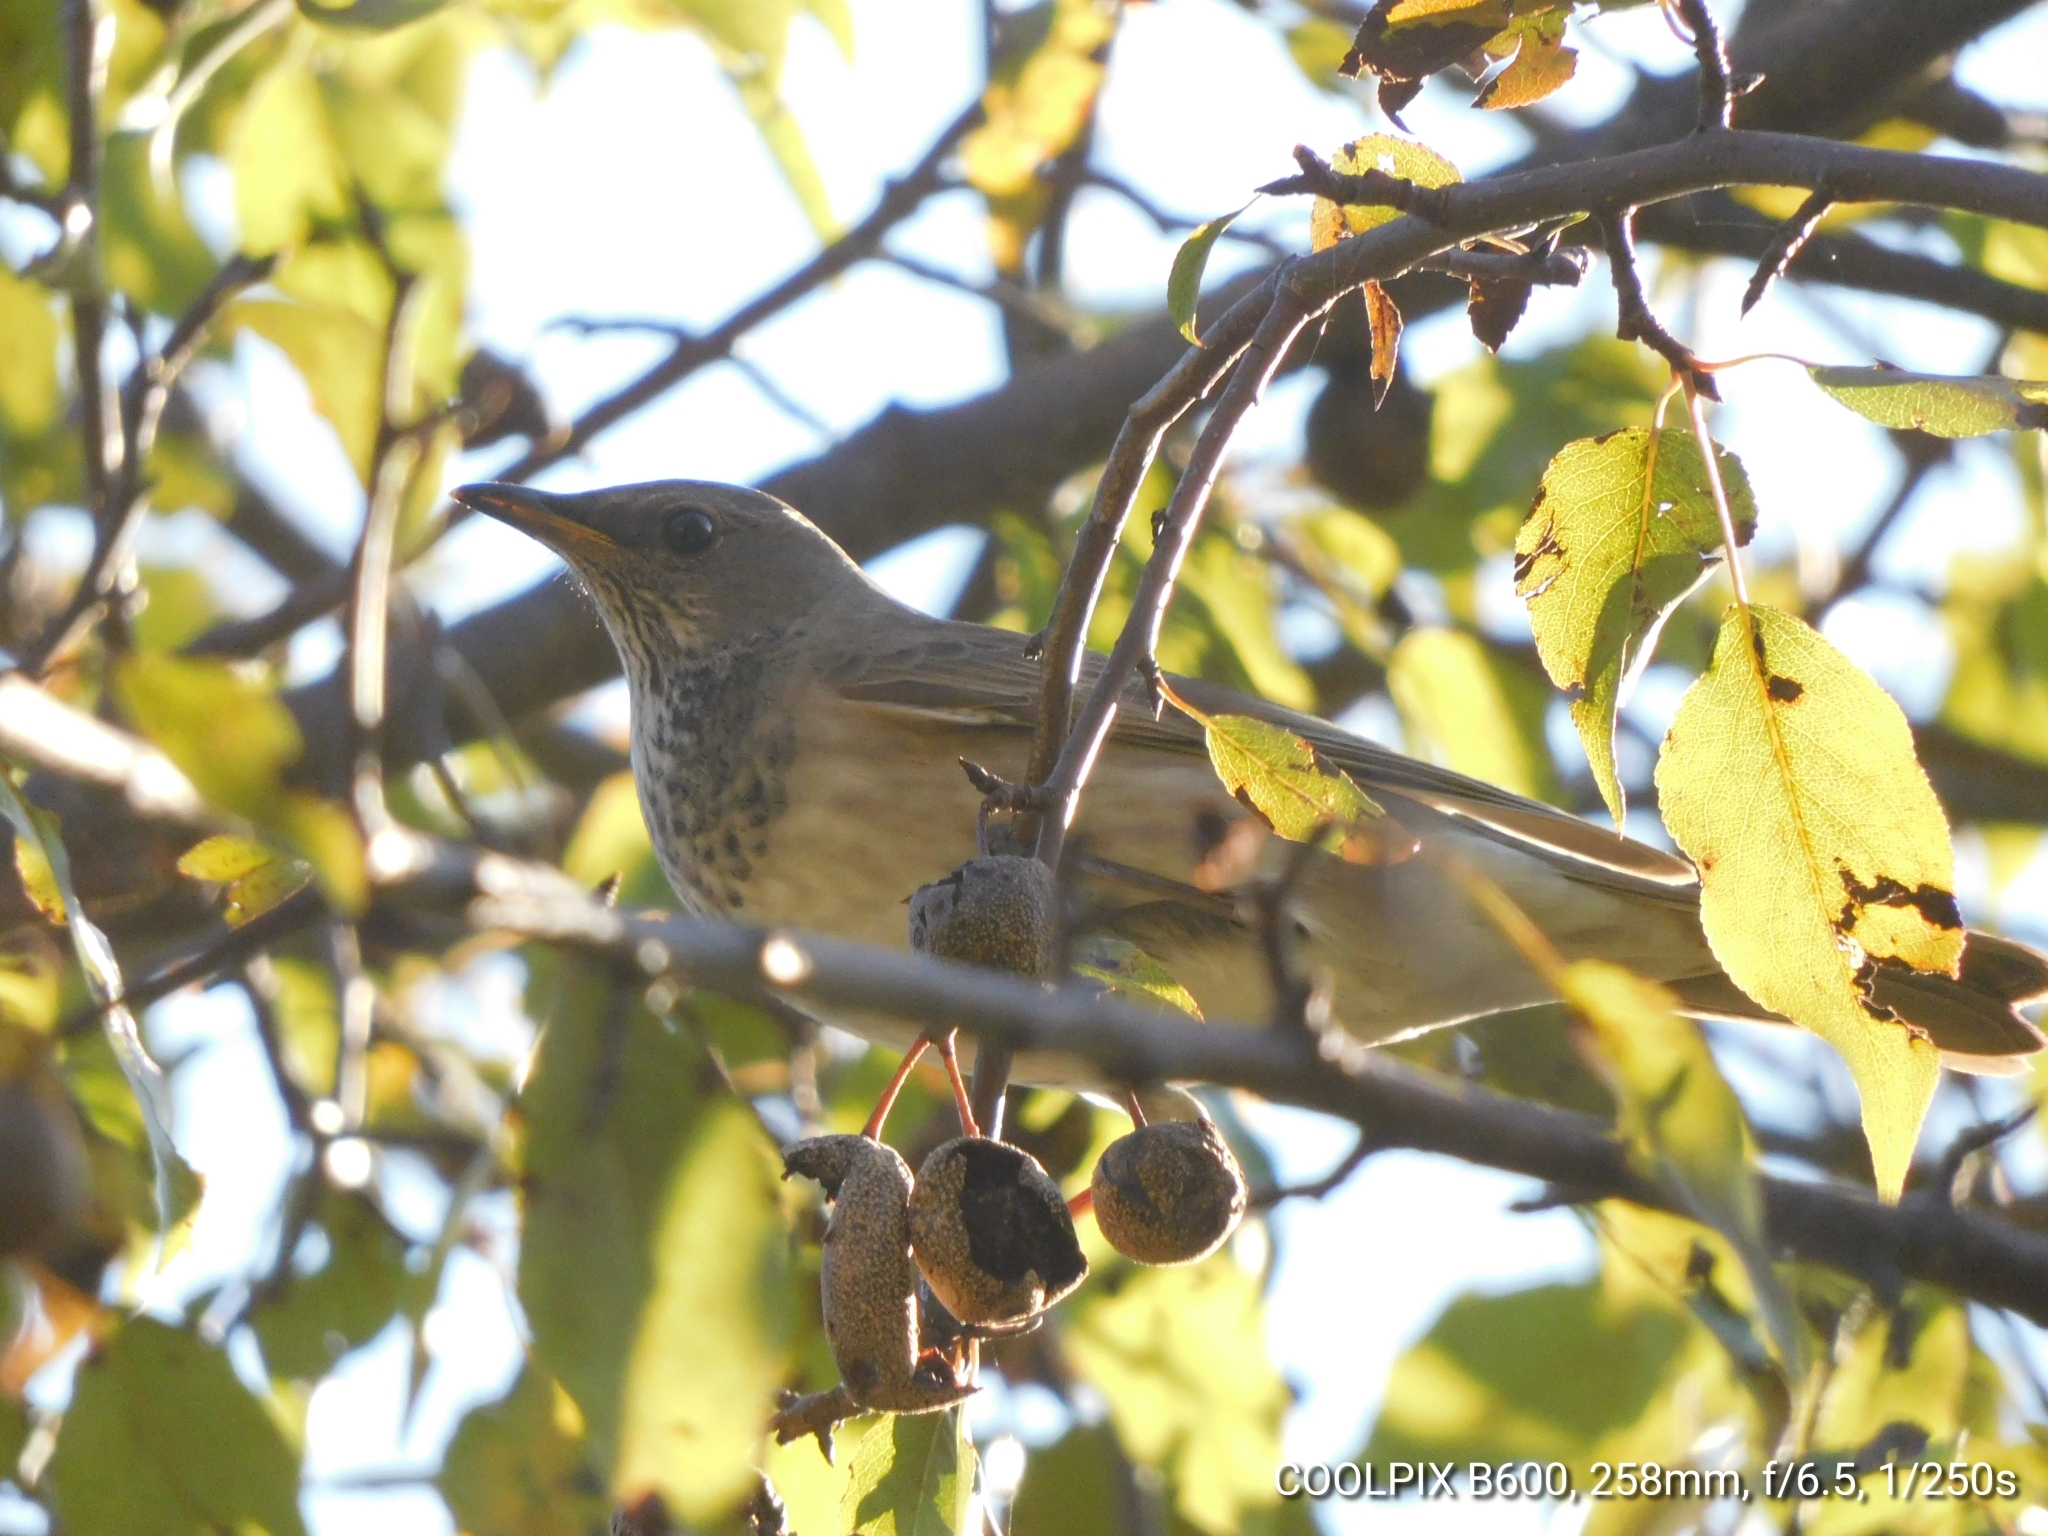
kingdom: Animalia
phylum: Chordata
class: Aves
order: Passeriformes
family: Turdidae
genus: Turdus
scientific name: Turdus atrogularis
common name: Black-throated thrush
